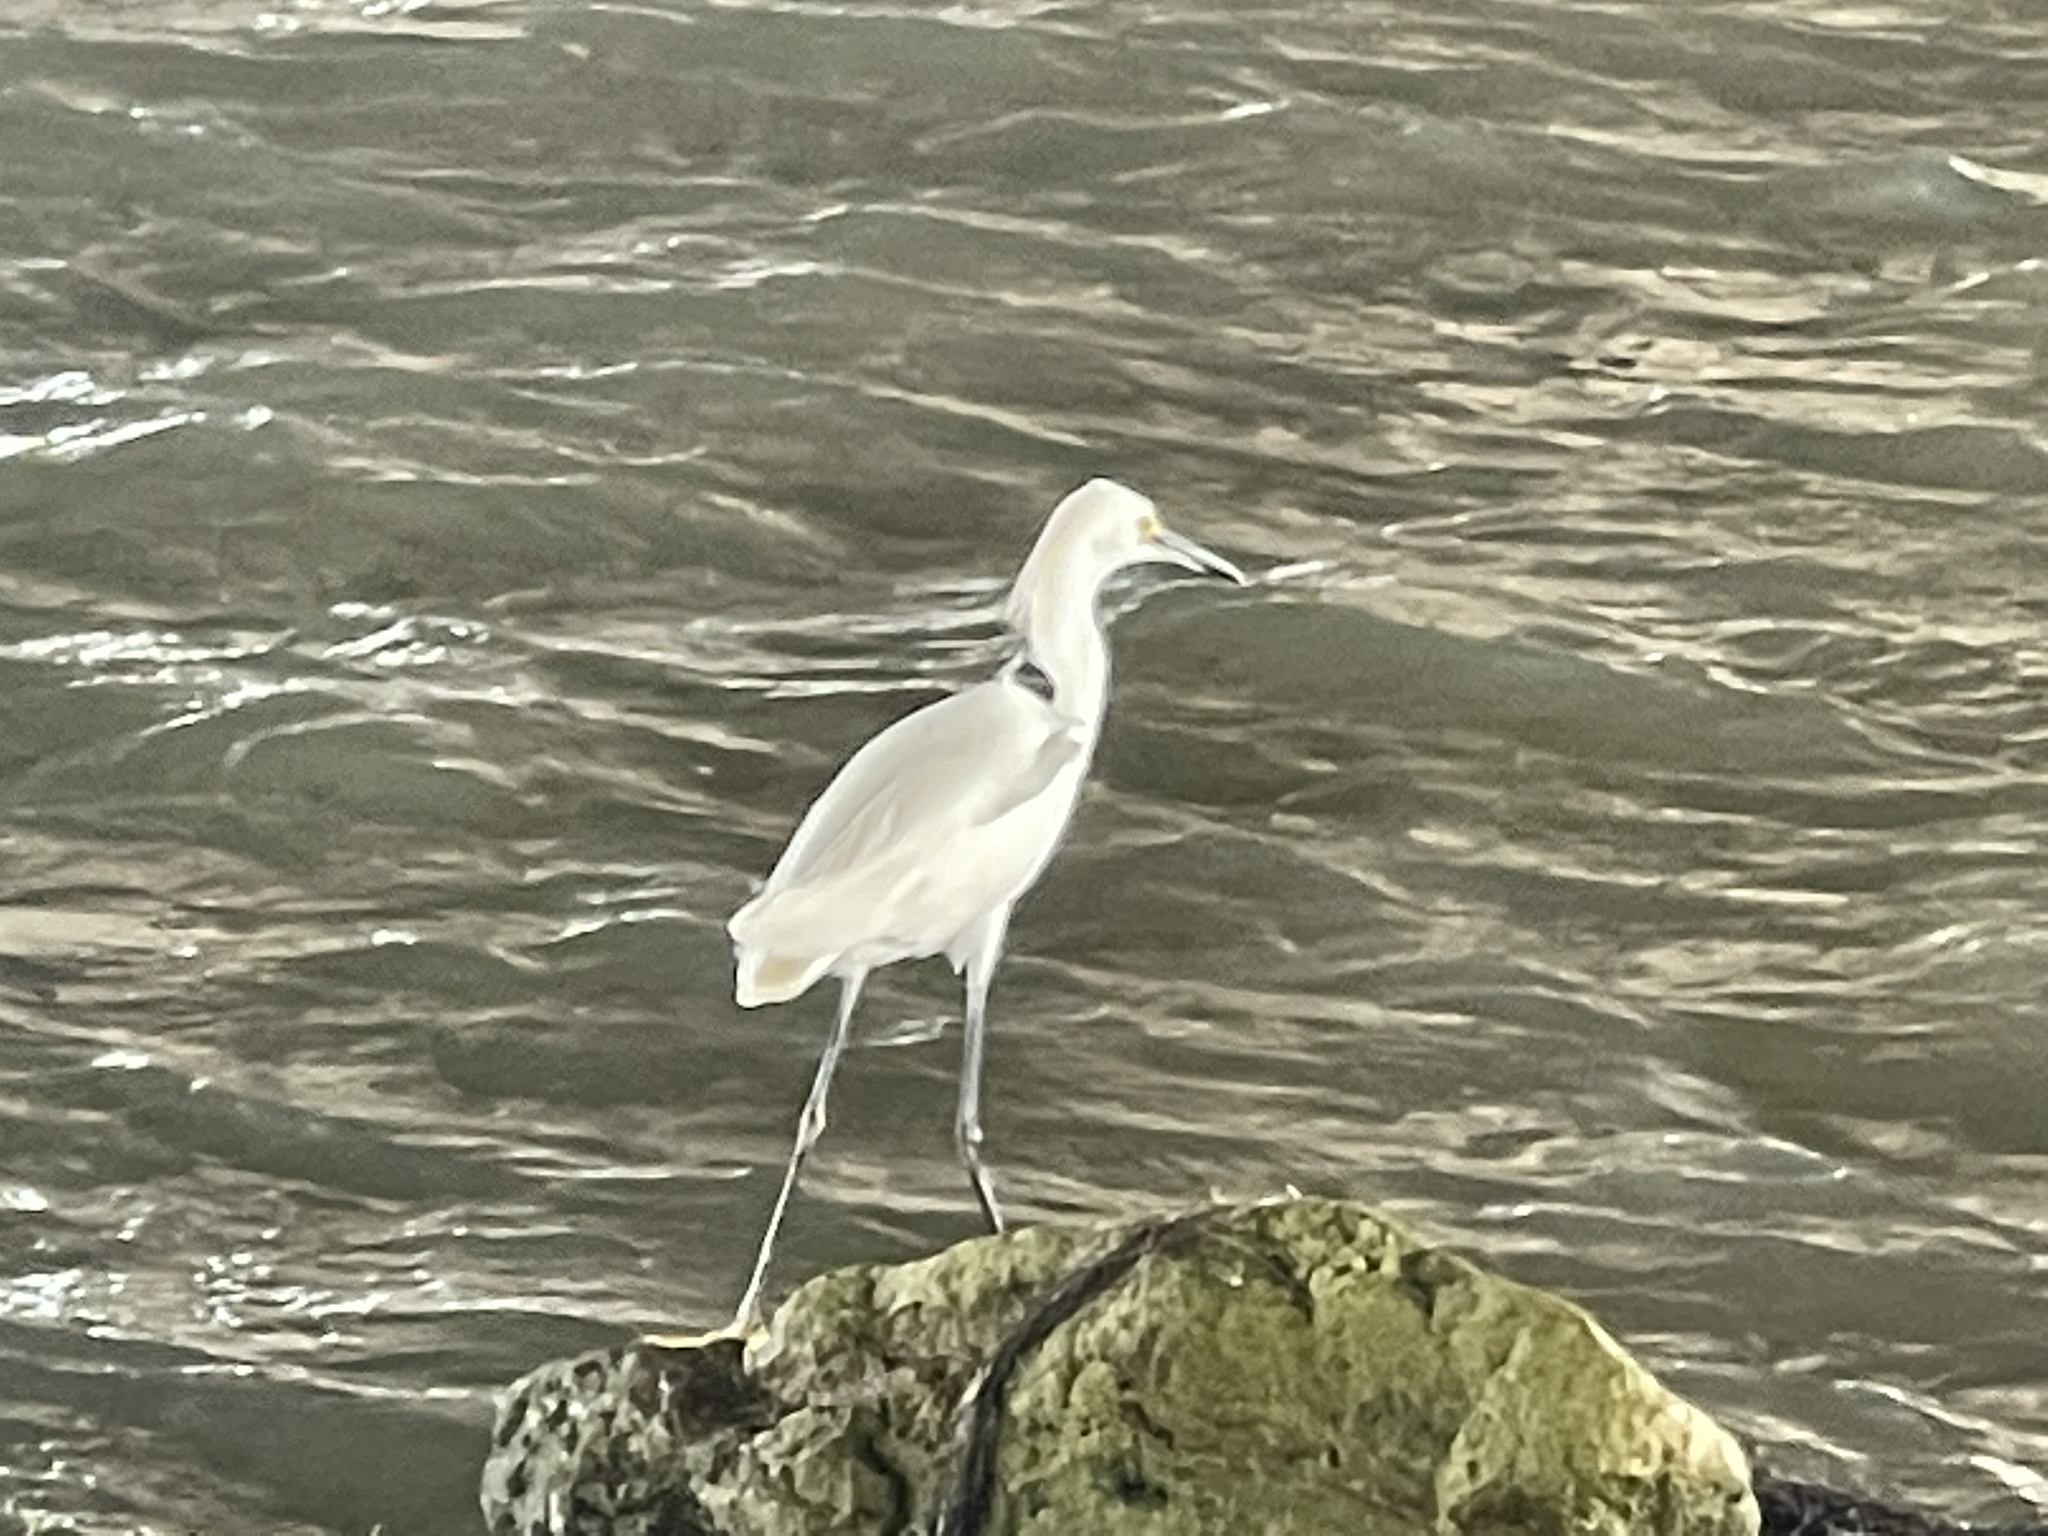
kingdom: Animalia
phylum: Chordata
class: Aves
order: Pelecaniformes
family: Ardeidae
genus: Egretta
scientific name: Egretta thula
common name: Snowy egret
